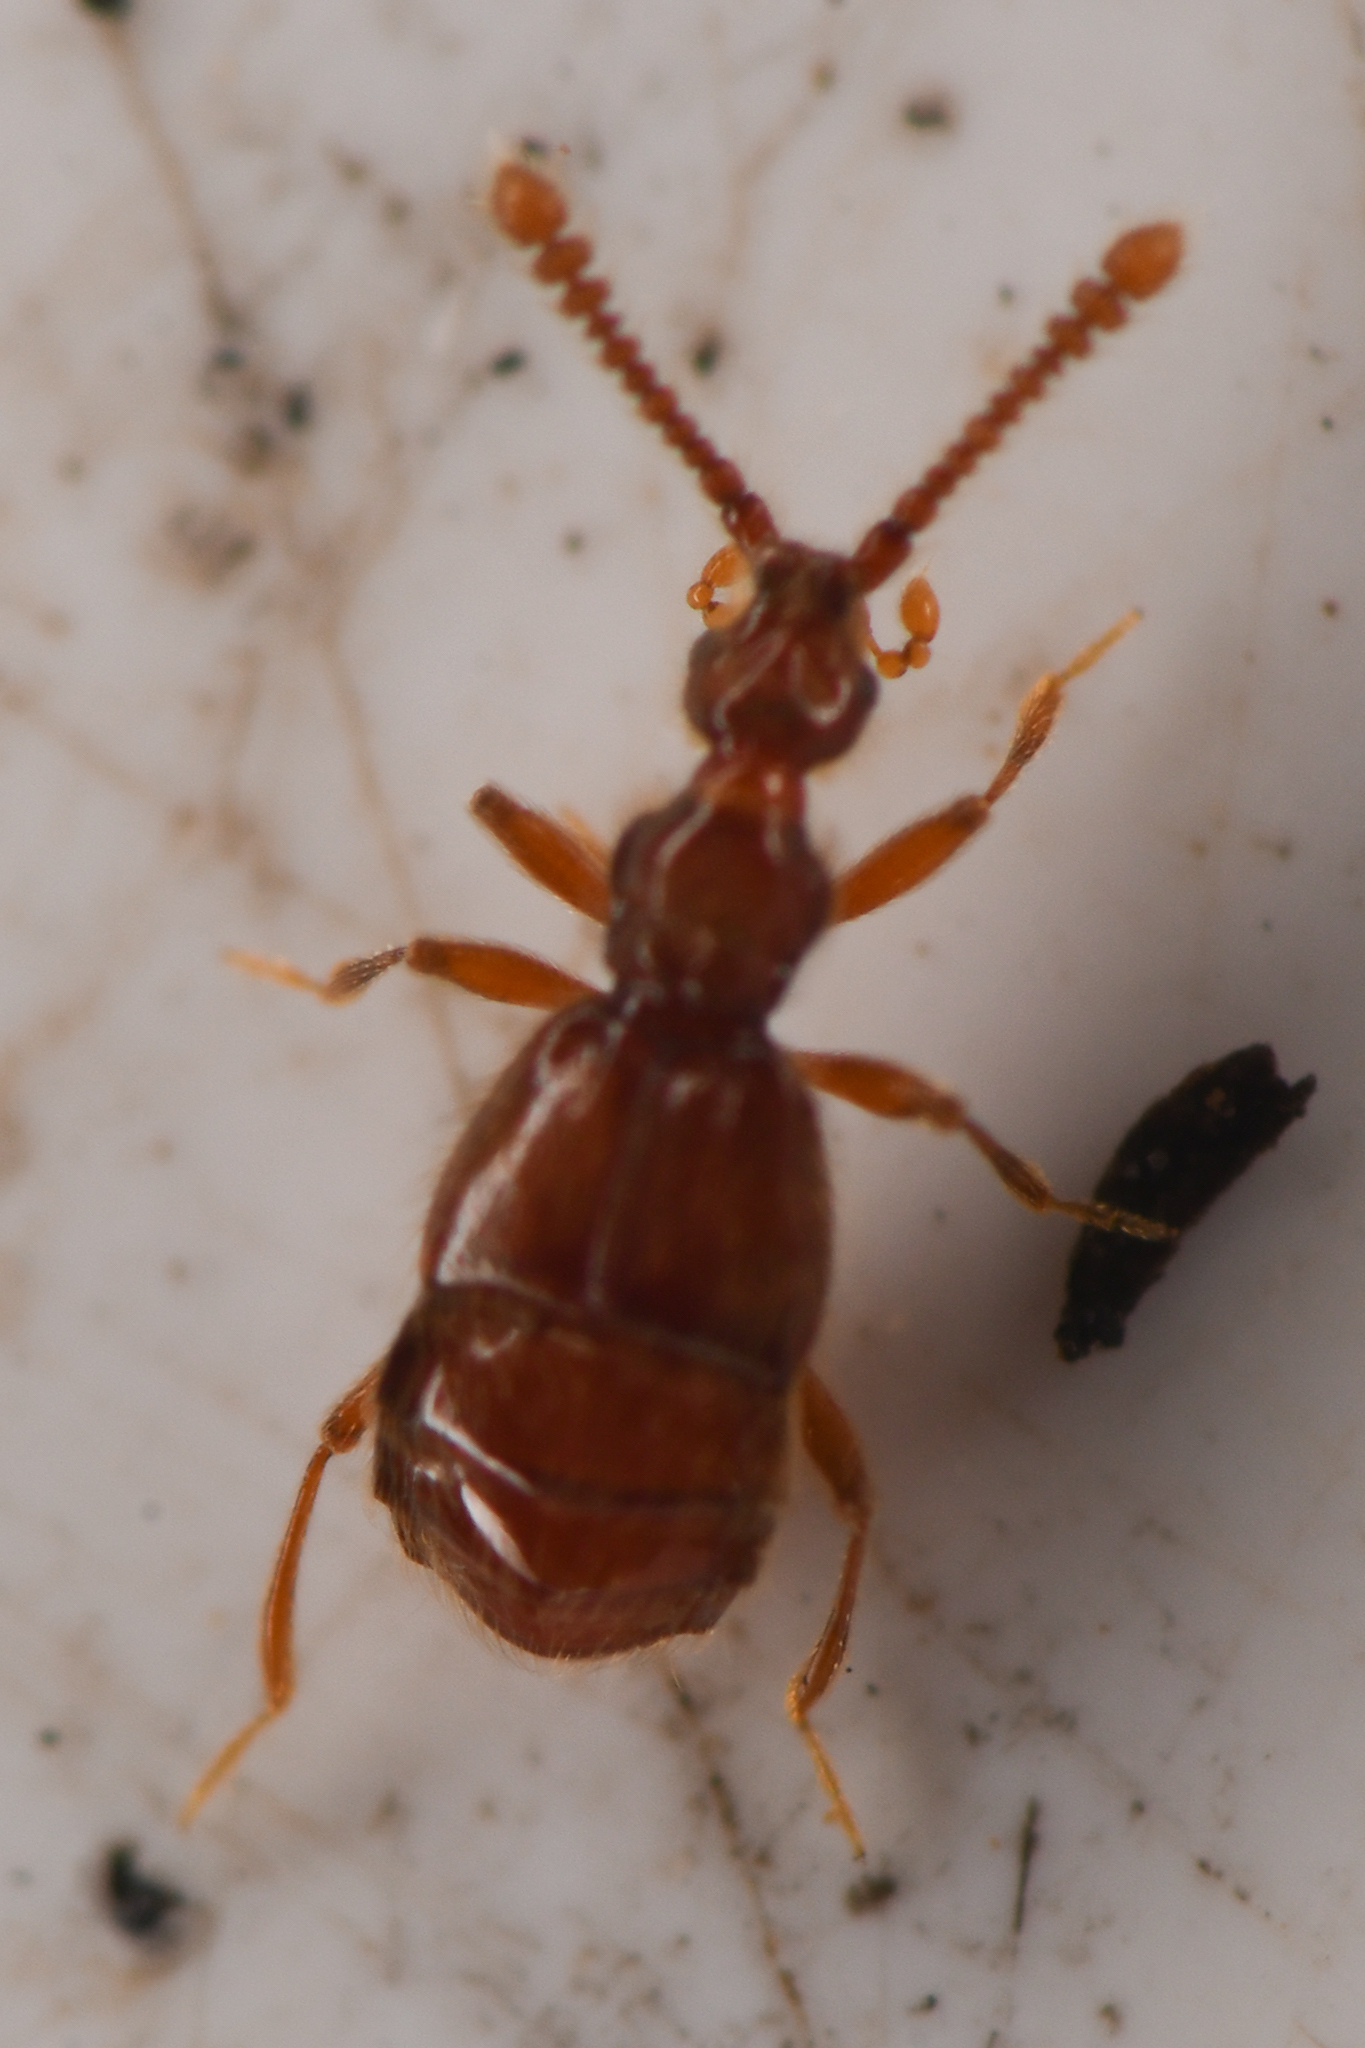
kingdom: Animalia
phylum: Arthropoda
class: Insecta
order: Coleoptera
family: Staphylinidae
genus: Morius
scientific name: Morius occidens
